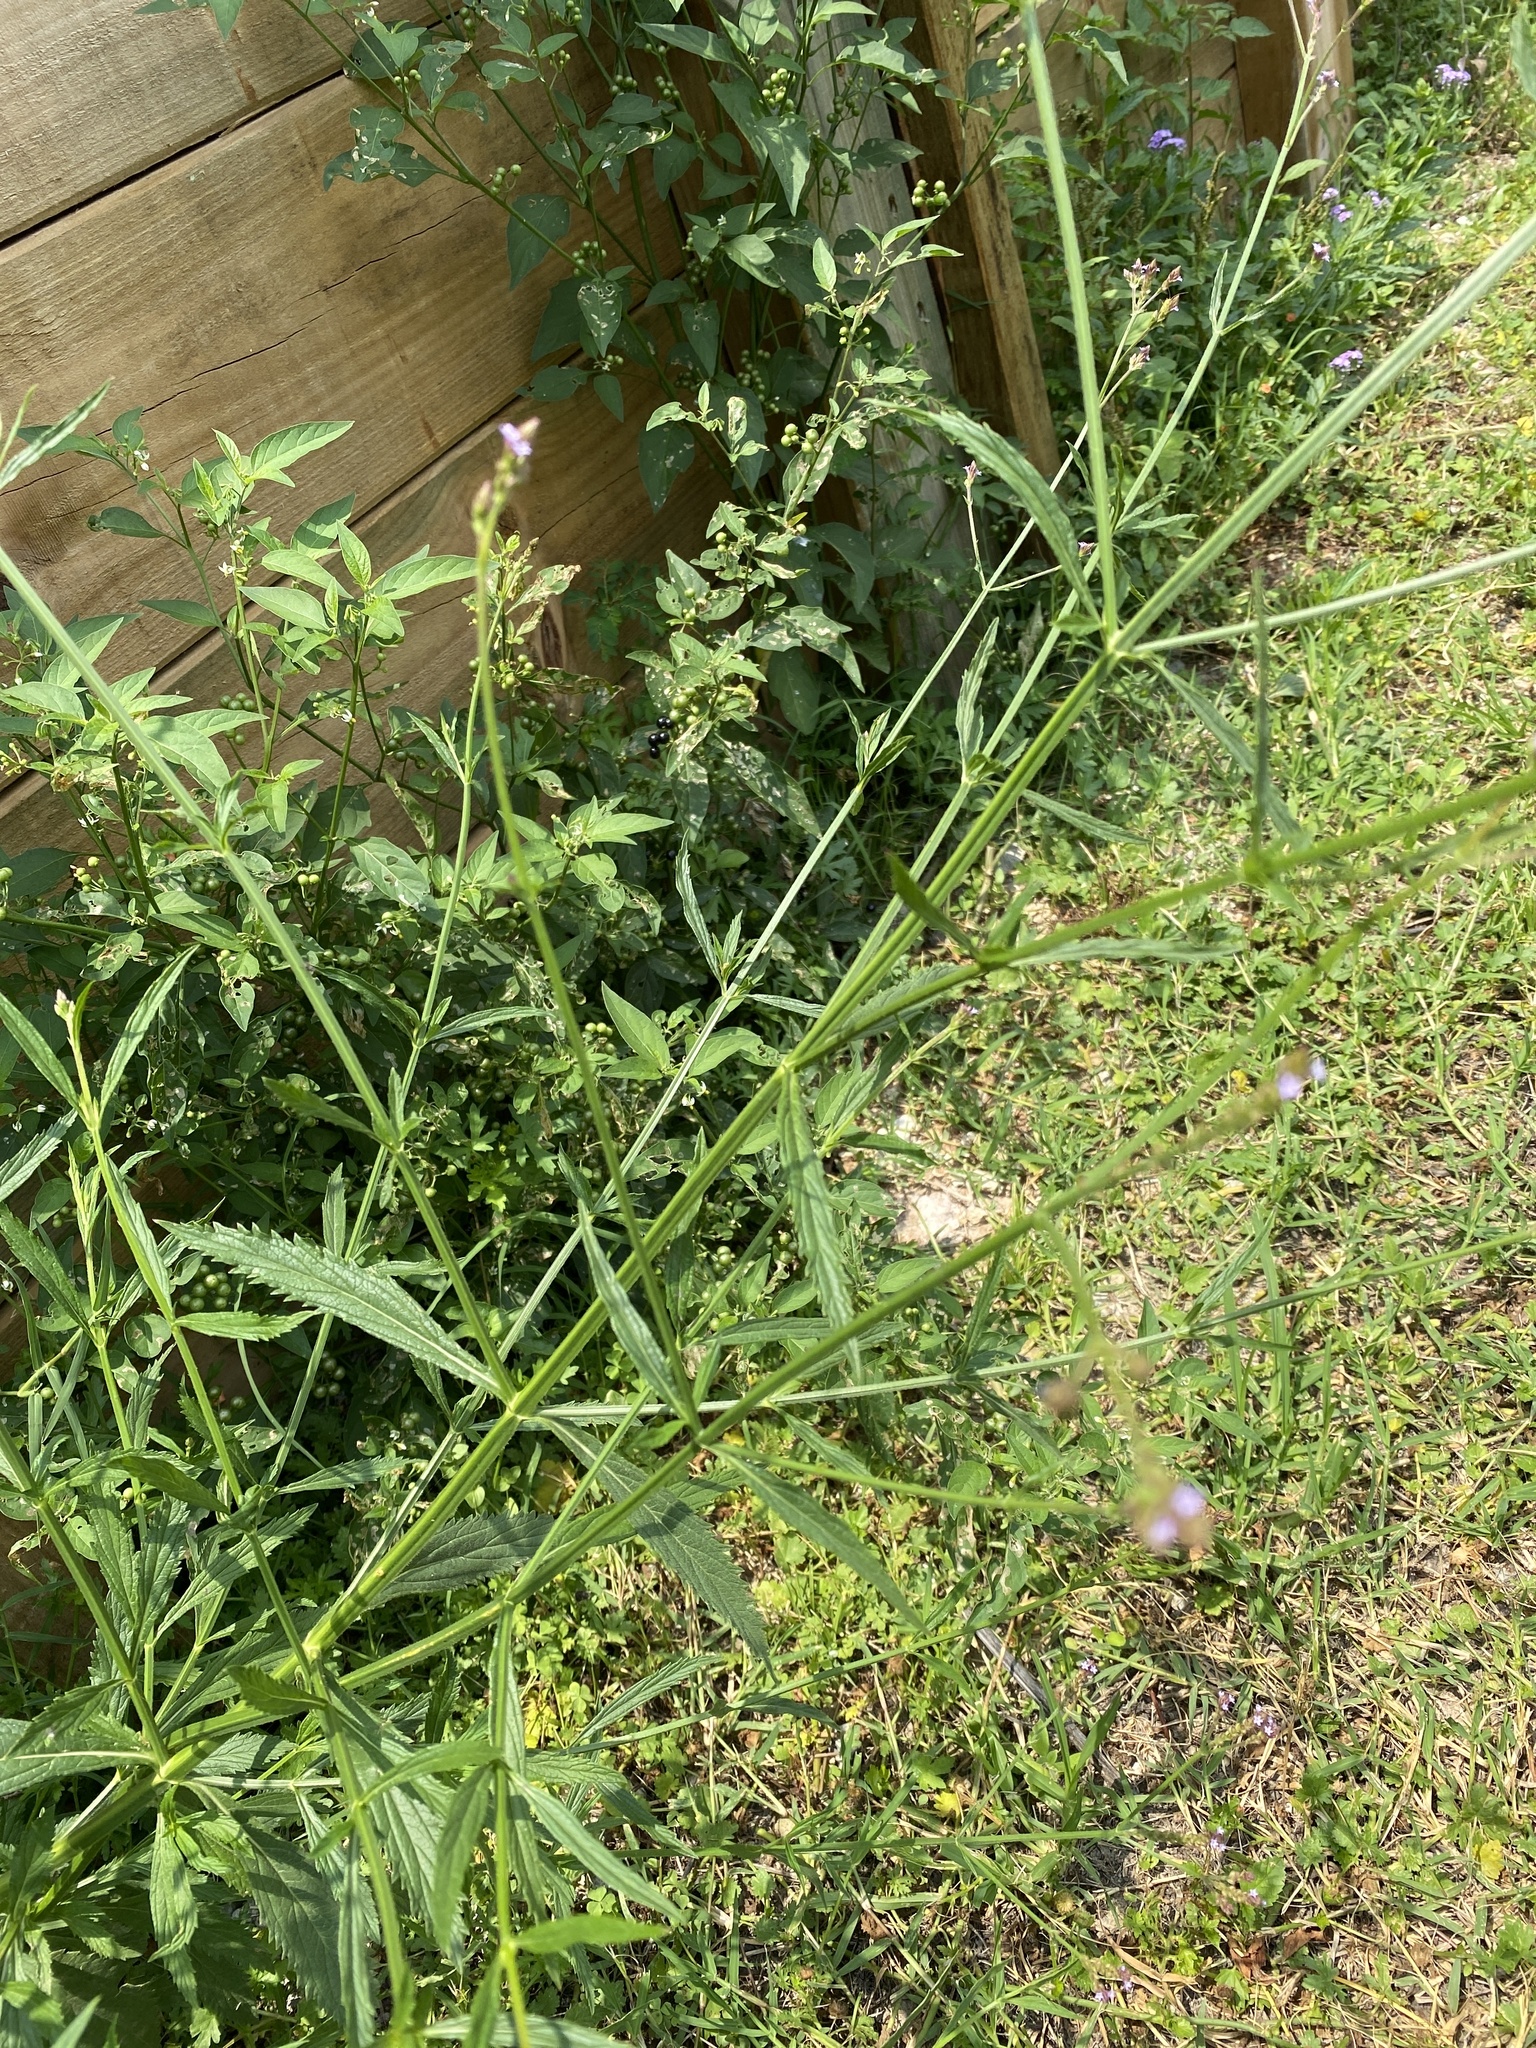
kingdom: Plantae
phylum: Tracheophyta
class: Magnoliopsida
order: Lamiales
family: Verbenaceae
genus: Verbena
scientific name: Verbena bonariensis
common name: Purpletop vervain
